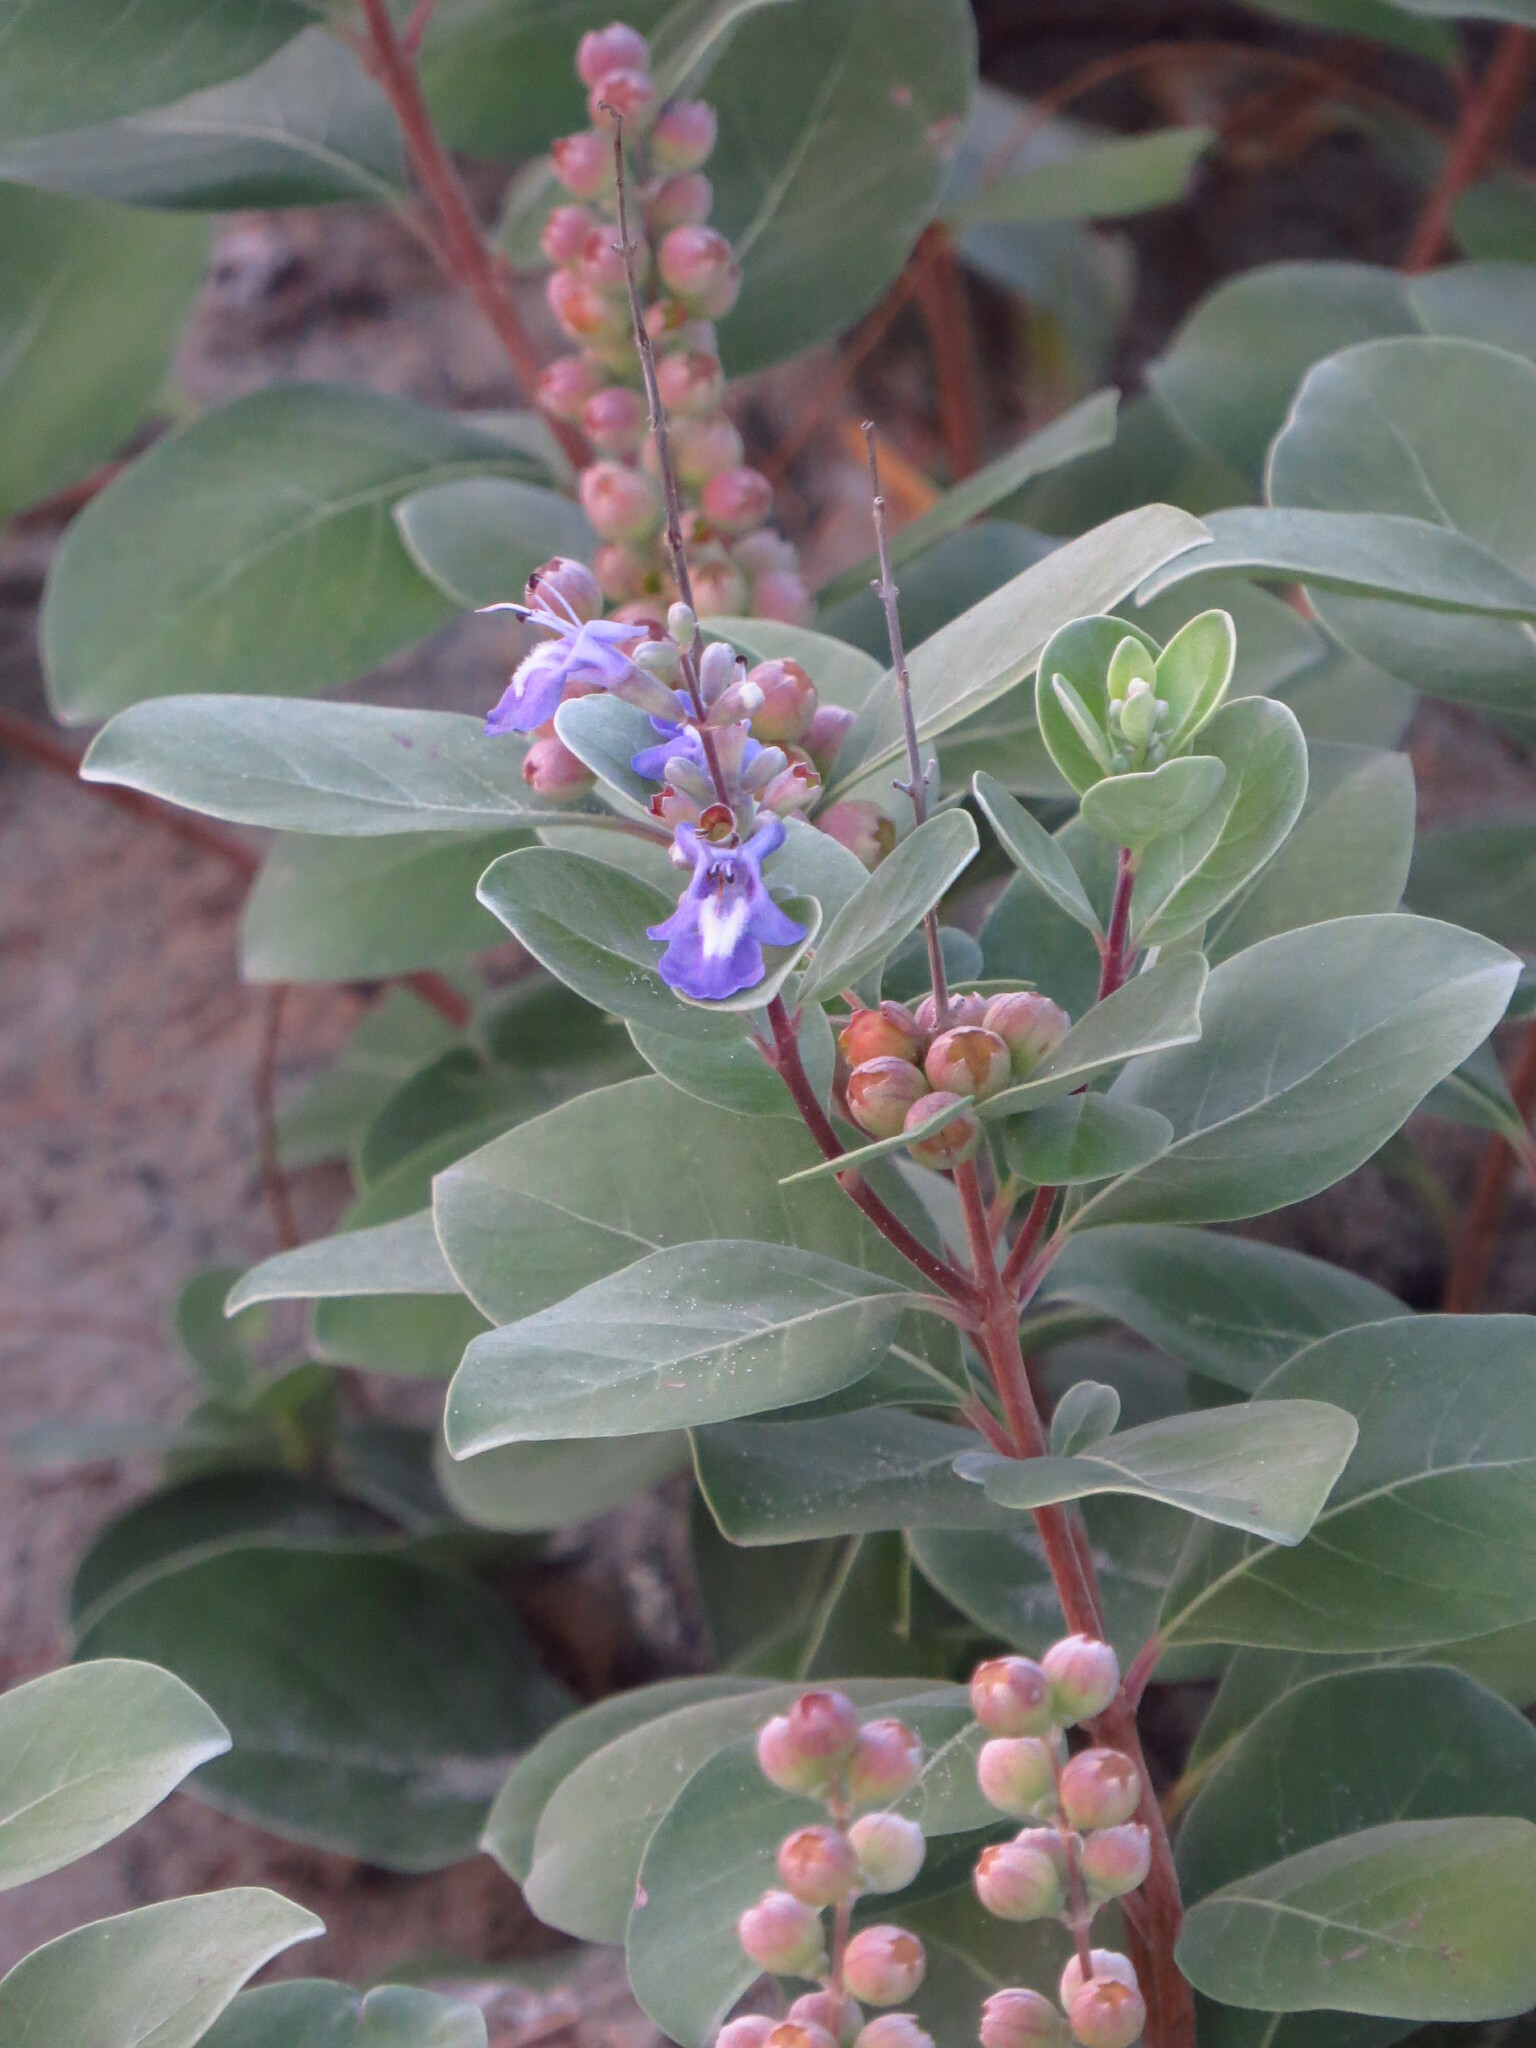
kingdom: Plantae
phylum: Tracheophyta
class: Magnoliopsida
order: Lamiales
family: Lamiaceae
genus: Vitex
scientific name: Vitex rotundifolia
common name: Beach vitex
